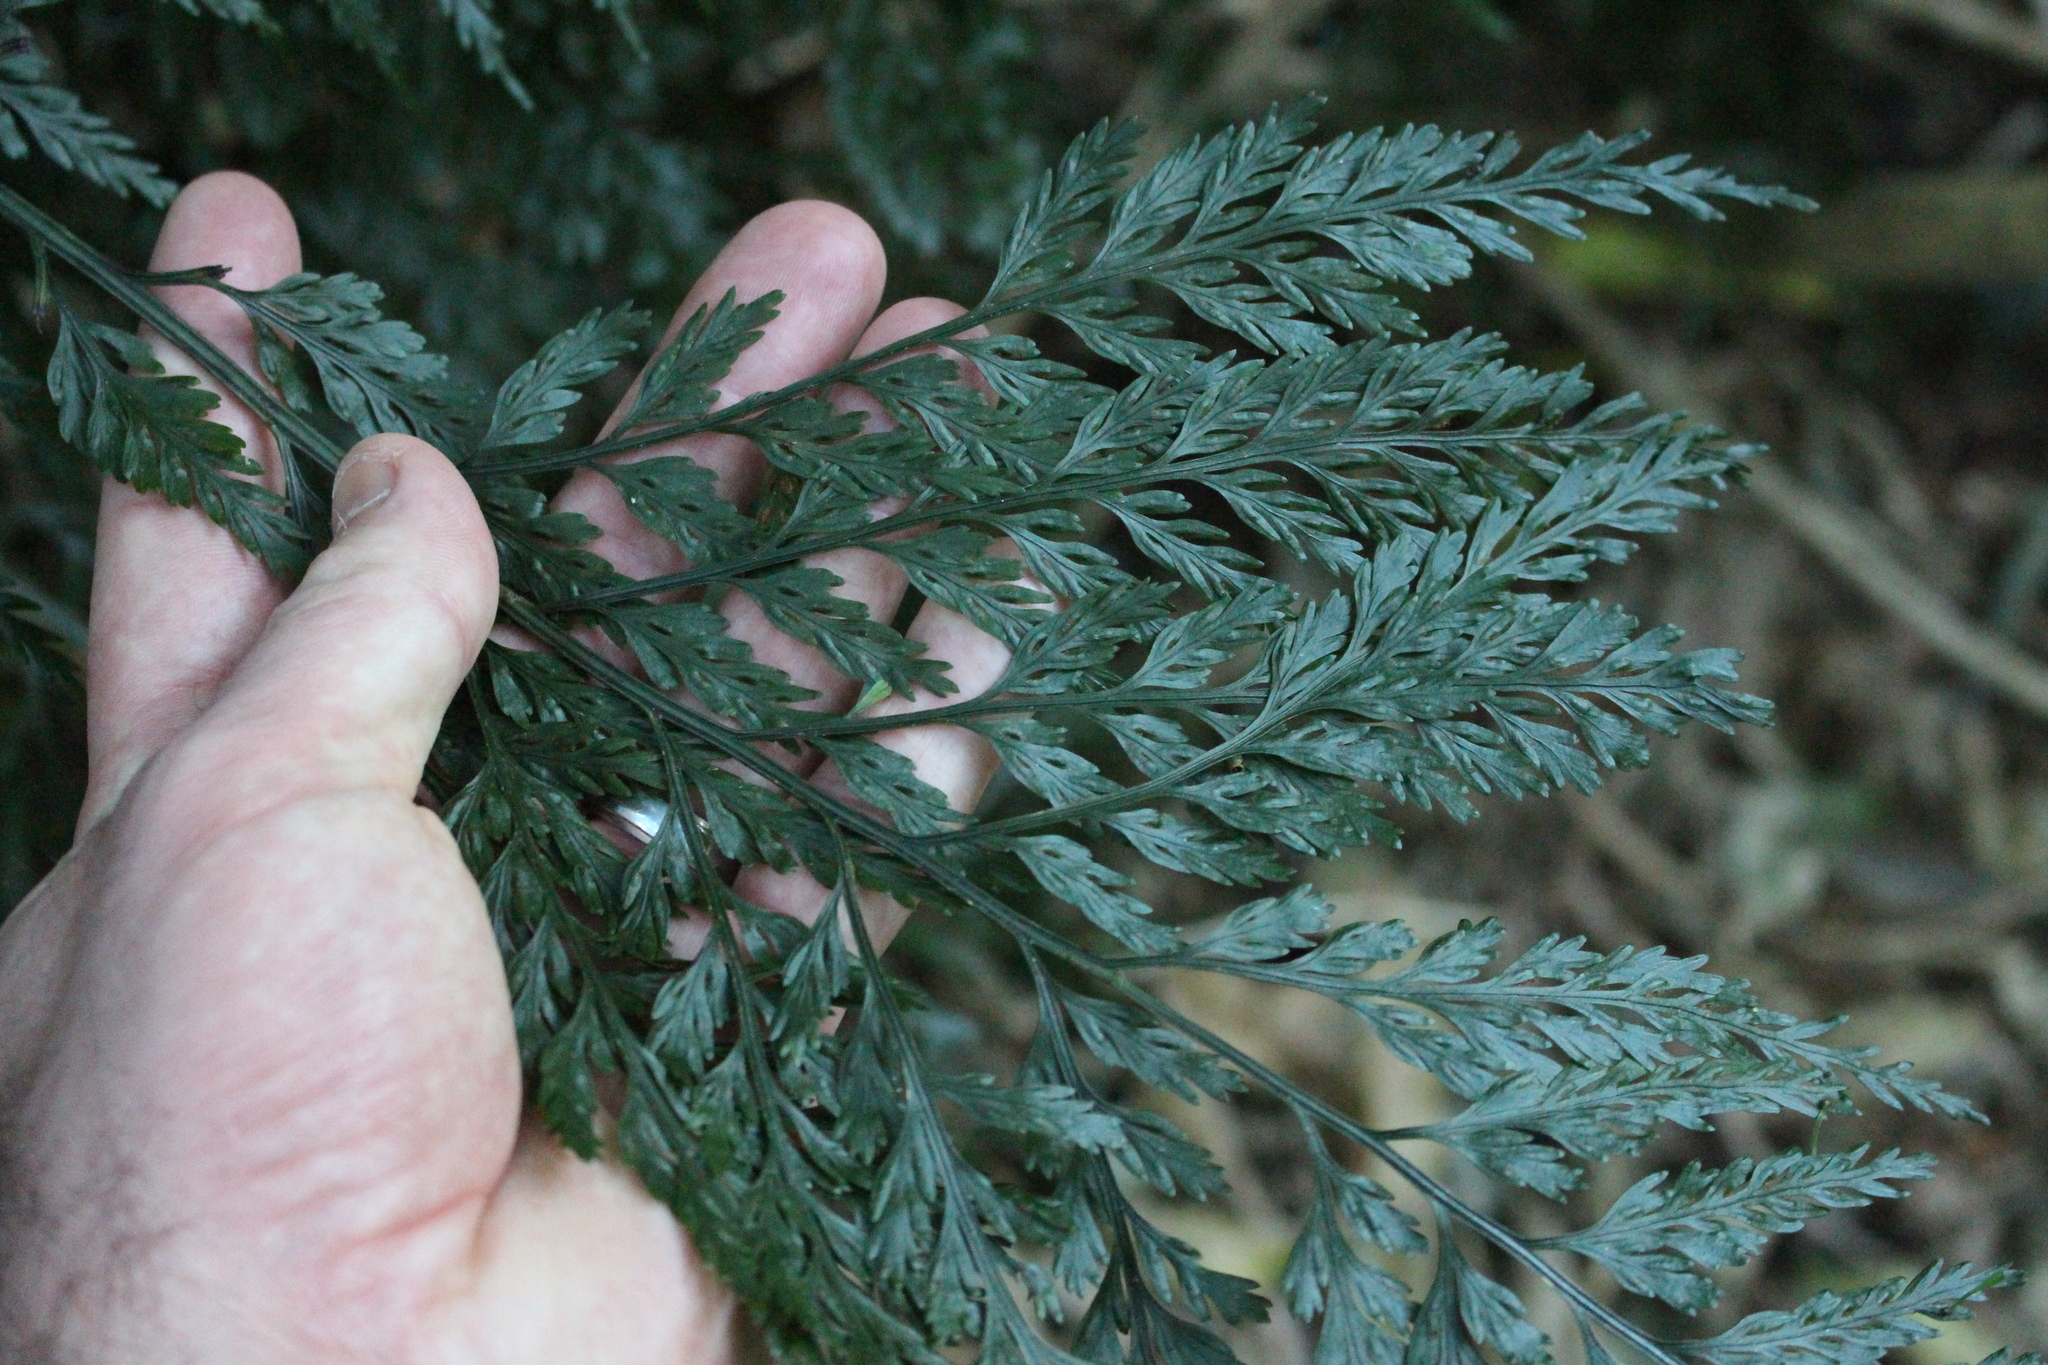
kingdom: Plantae
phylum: Tracheophyta
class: Polypodiopsida
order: Polypodiales
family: Aspleniaceae
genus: Asplenium
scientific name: Asplenium
